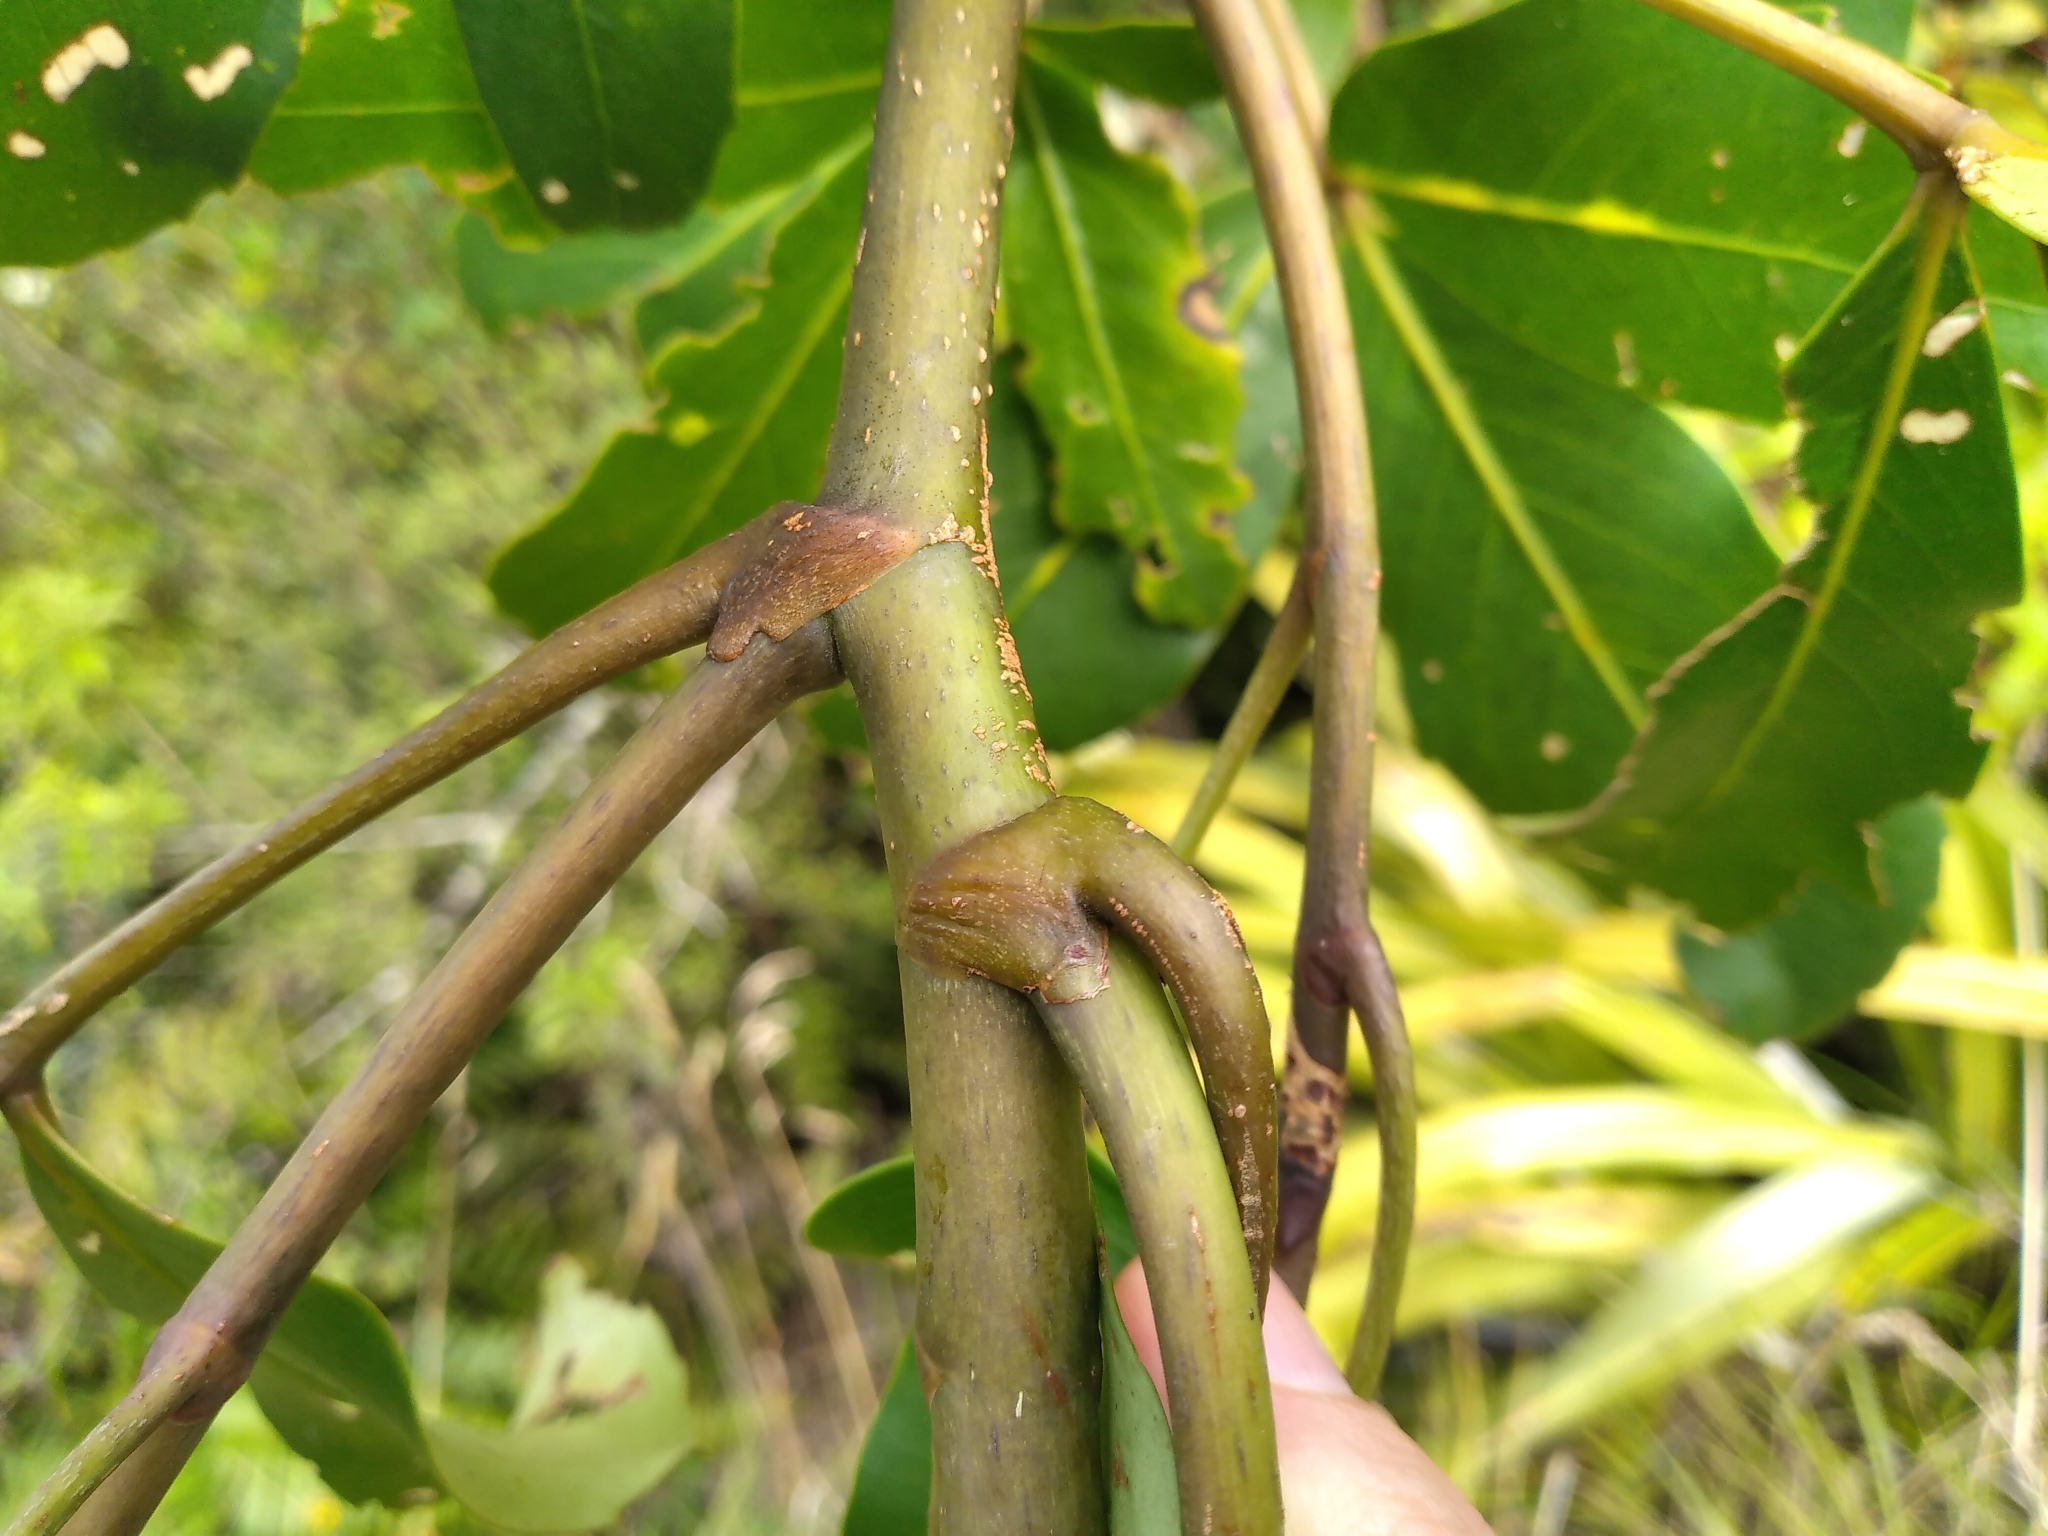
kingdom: Plantae
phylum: Tracheophyta
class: Magnoliopsida
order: Apiales
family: Araliaceae
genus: Neopanax
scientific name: Neopanax colensoi
